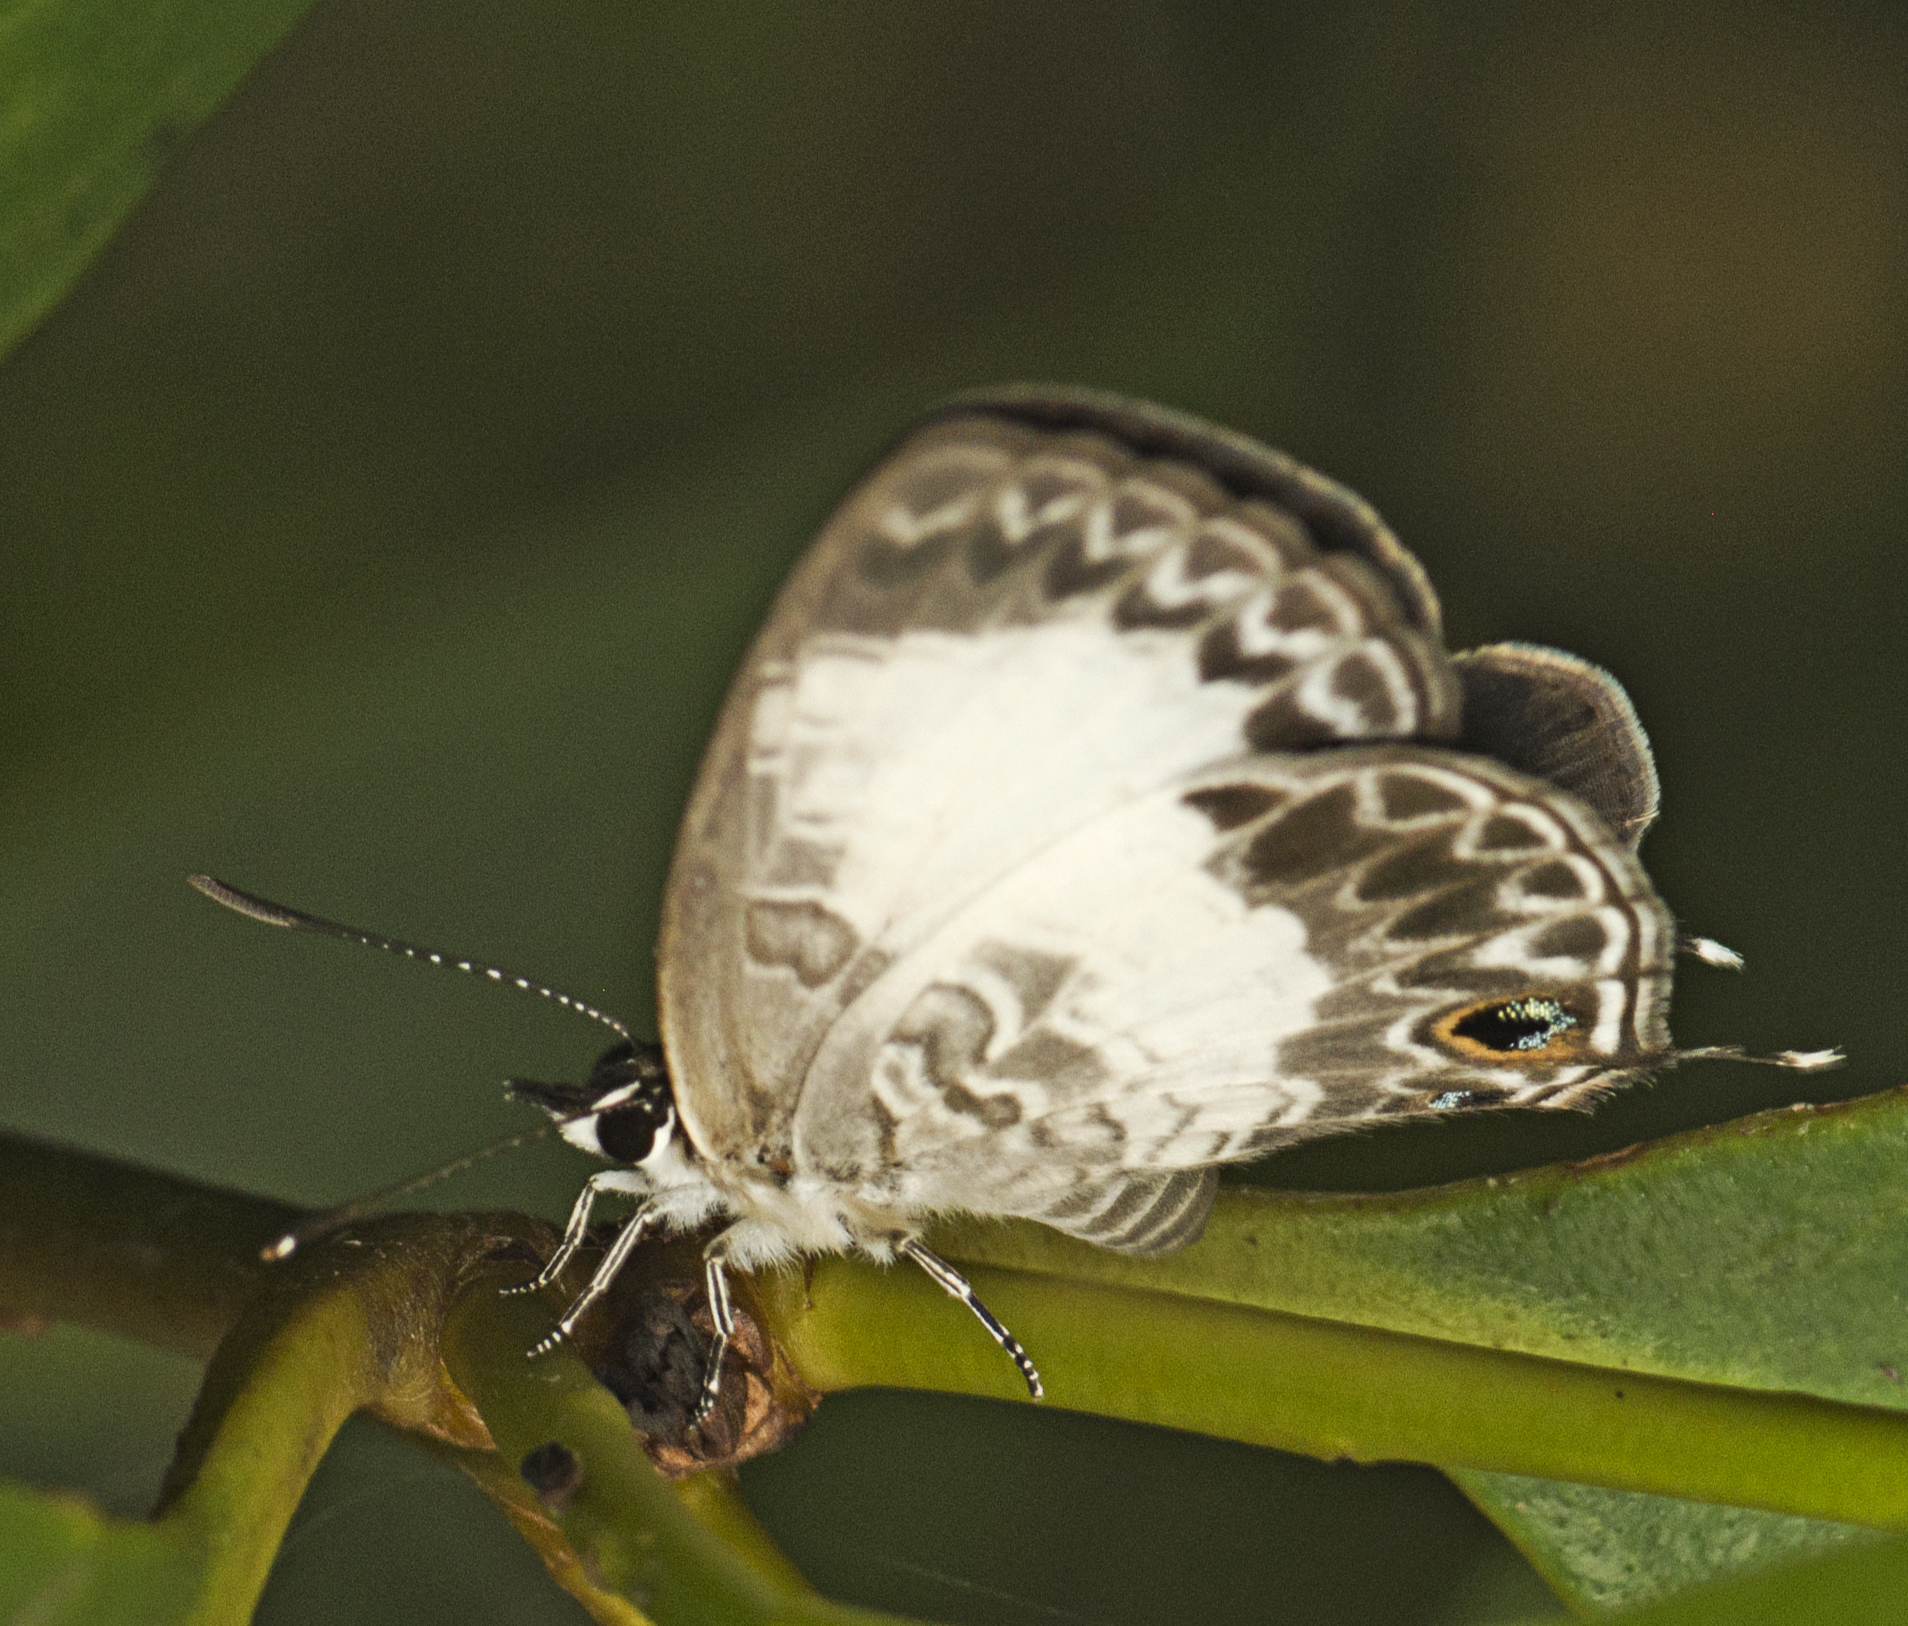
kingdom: Animalia
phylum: Arthropoda
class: Insecta
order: Lepidoptera
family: Lycaenidae
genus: Nacaduba
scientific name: Nacaduba kurava
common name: Transparent 6-line blue
